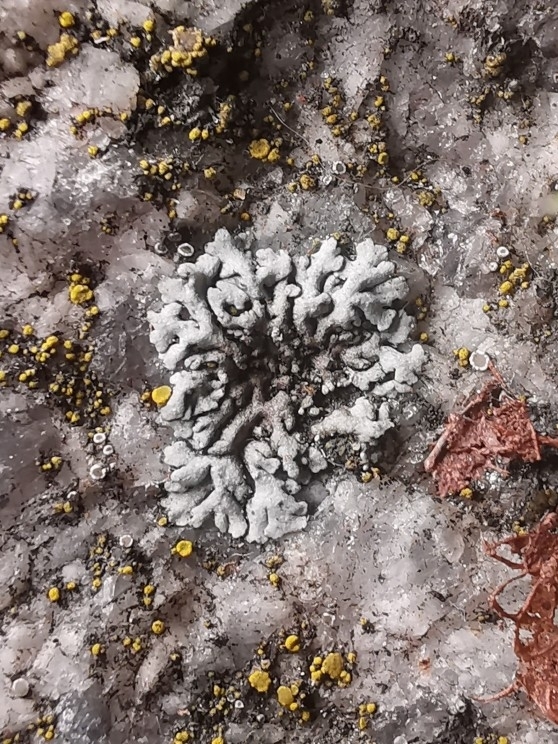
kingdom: Fungi
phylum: Ascomycota
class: Lecanoromycetes
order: Caliciales
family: Physciaceae
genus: Physcia
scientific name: Physcia caesia
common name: Blue-gray rosette lichen
